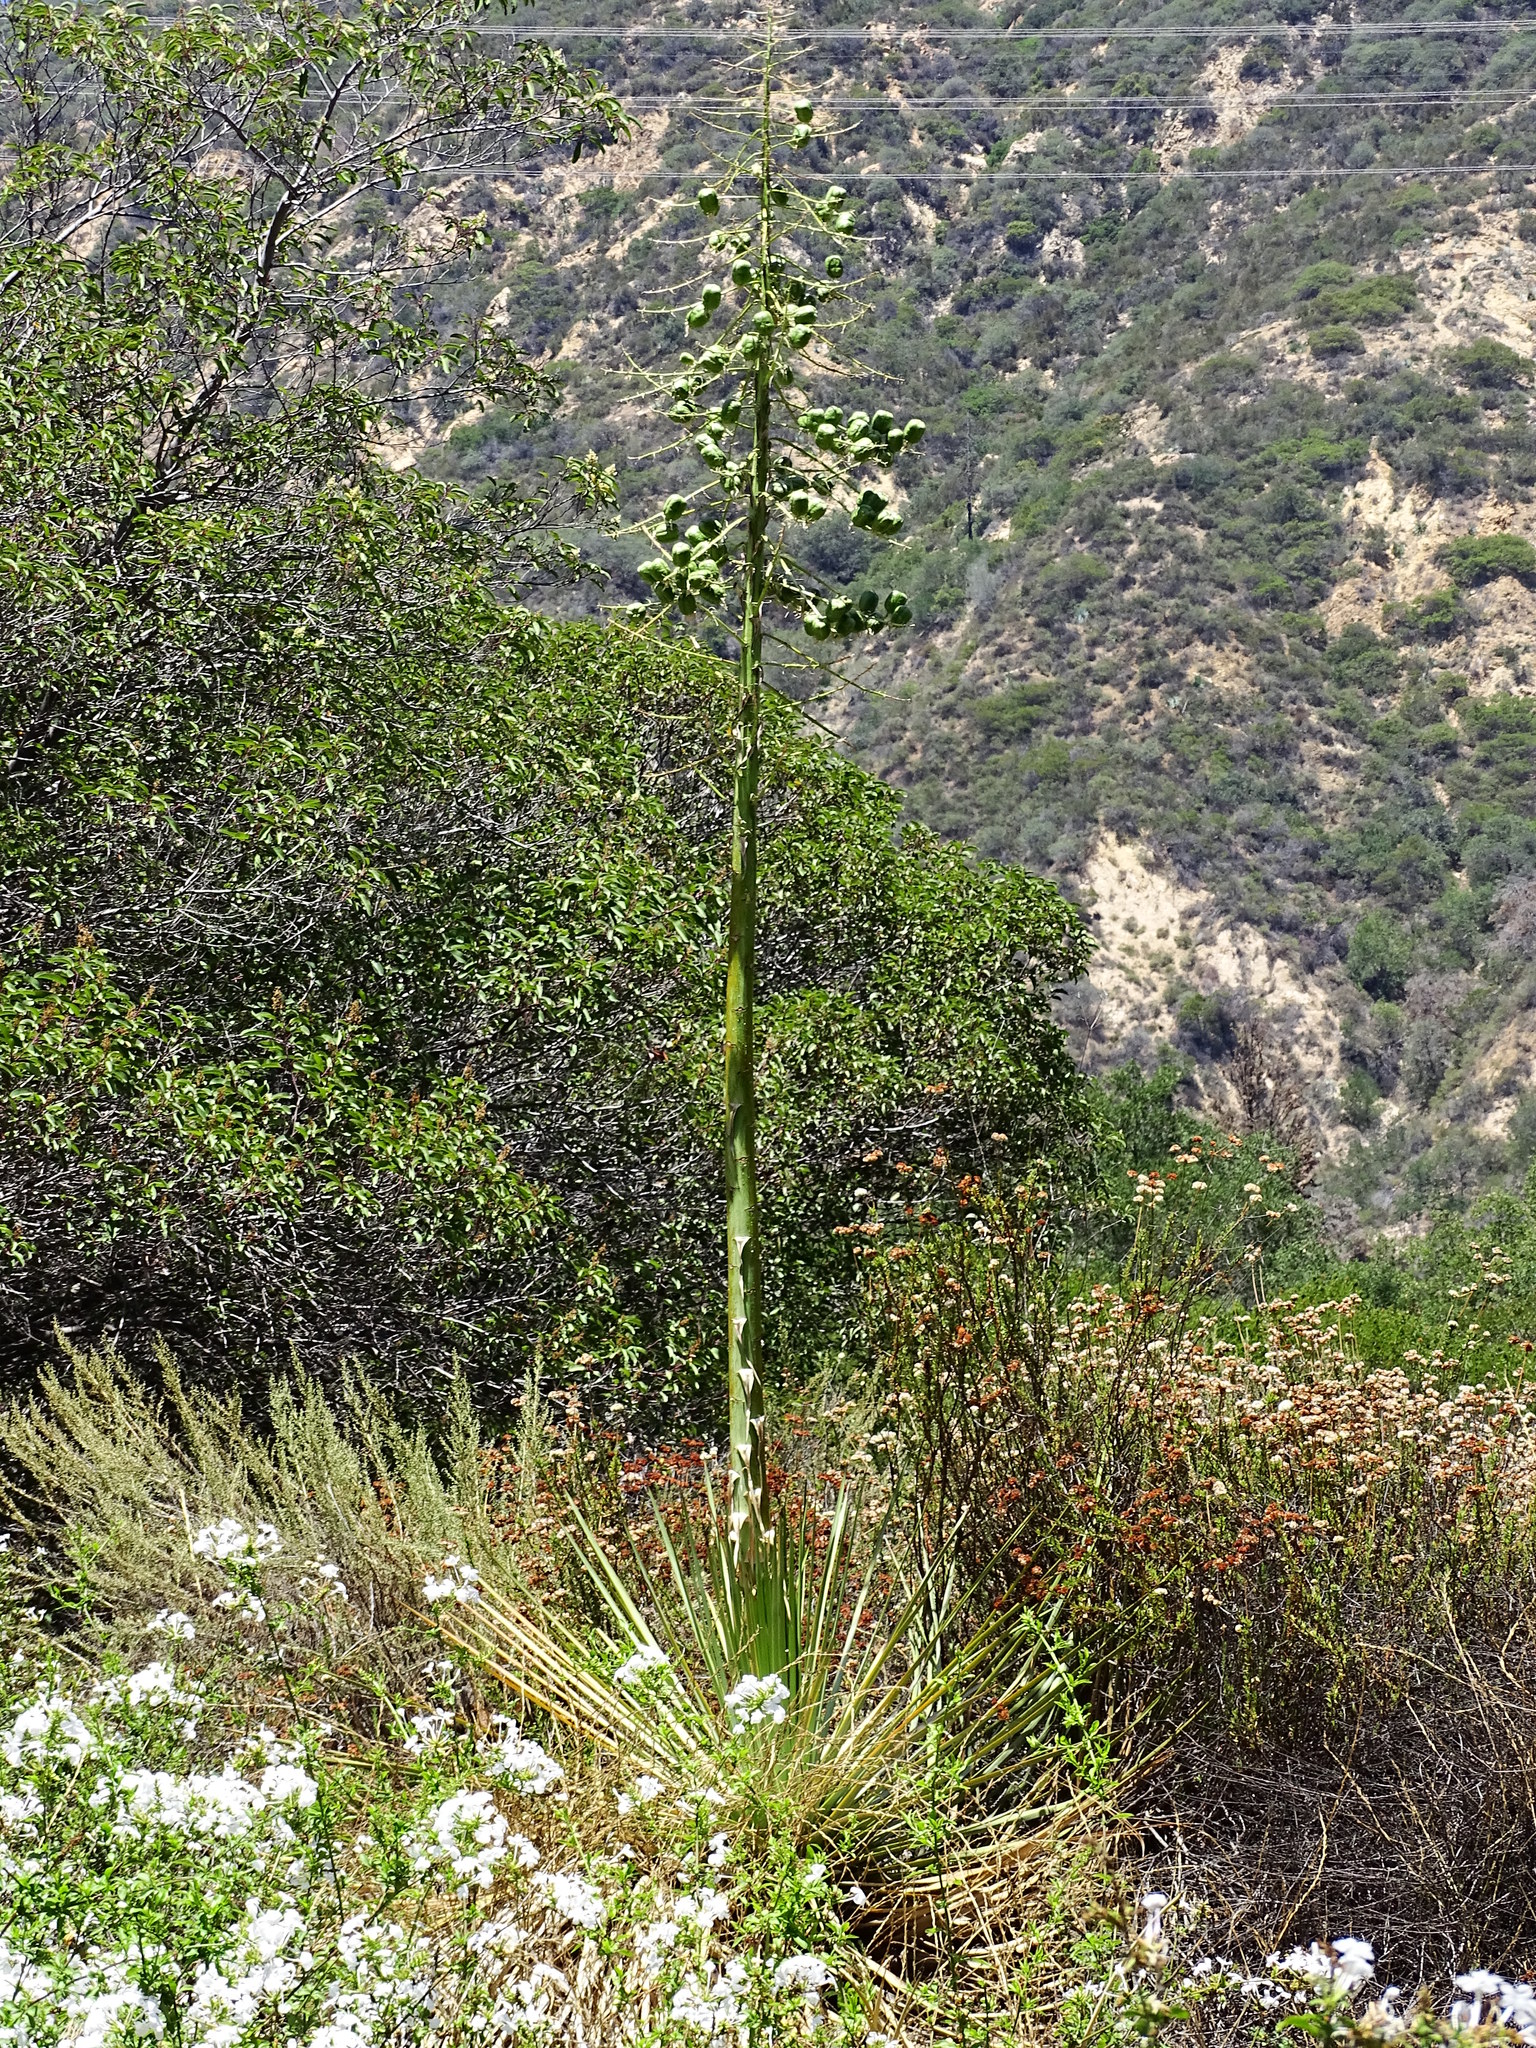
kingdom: Plantae
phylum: Tracheophyta
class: Liliopsida
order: Asparagales
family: Asparagaceae
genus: Hesperoyucca
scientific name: Hesperoyucca whipplei
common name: Our lord's-candle
